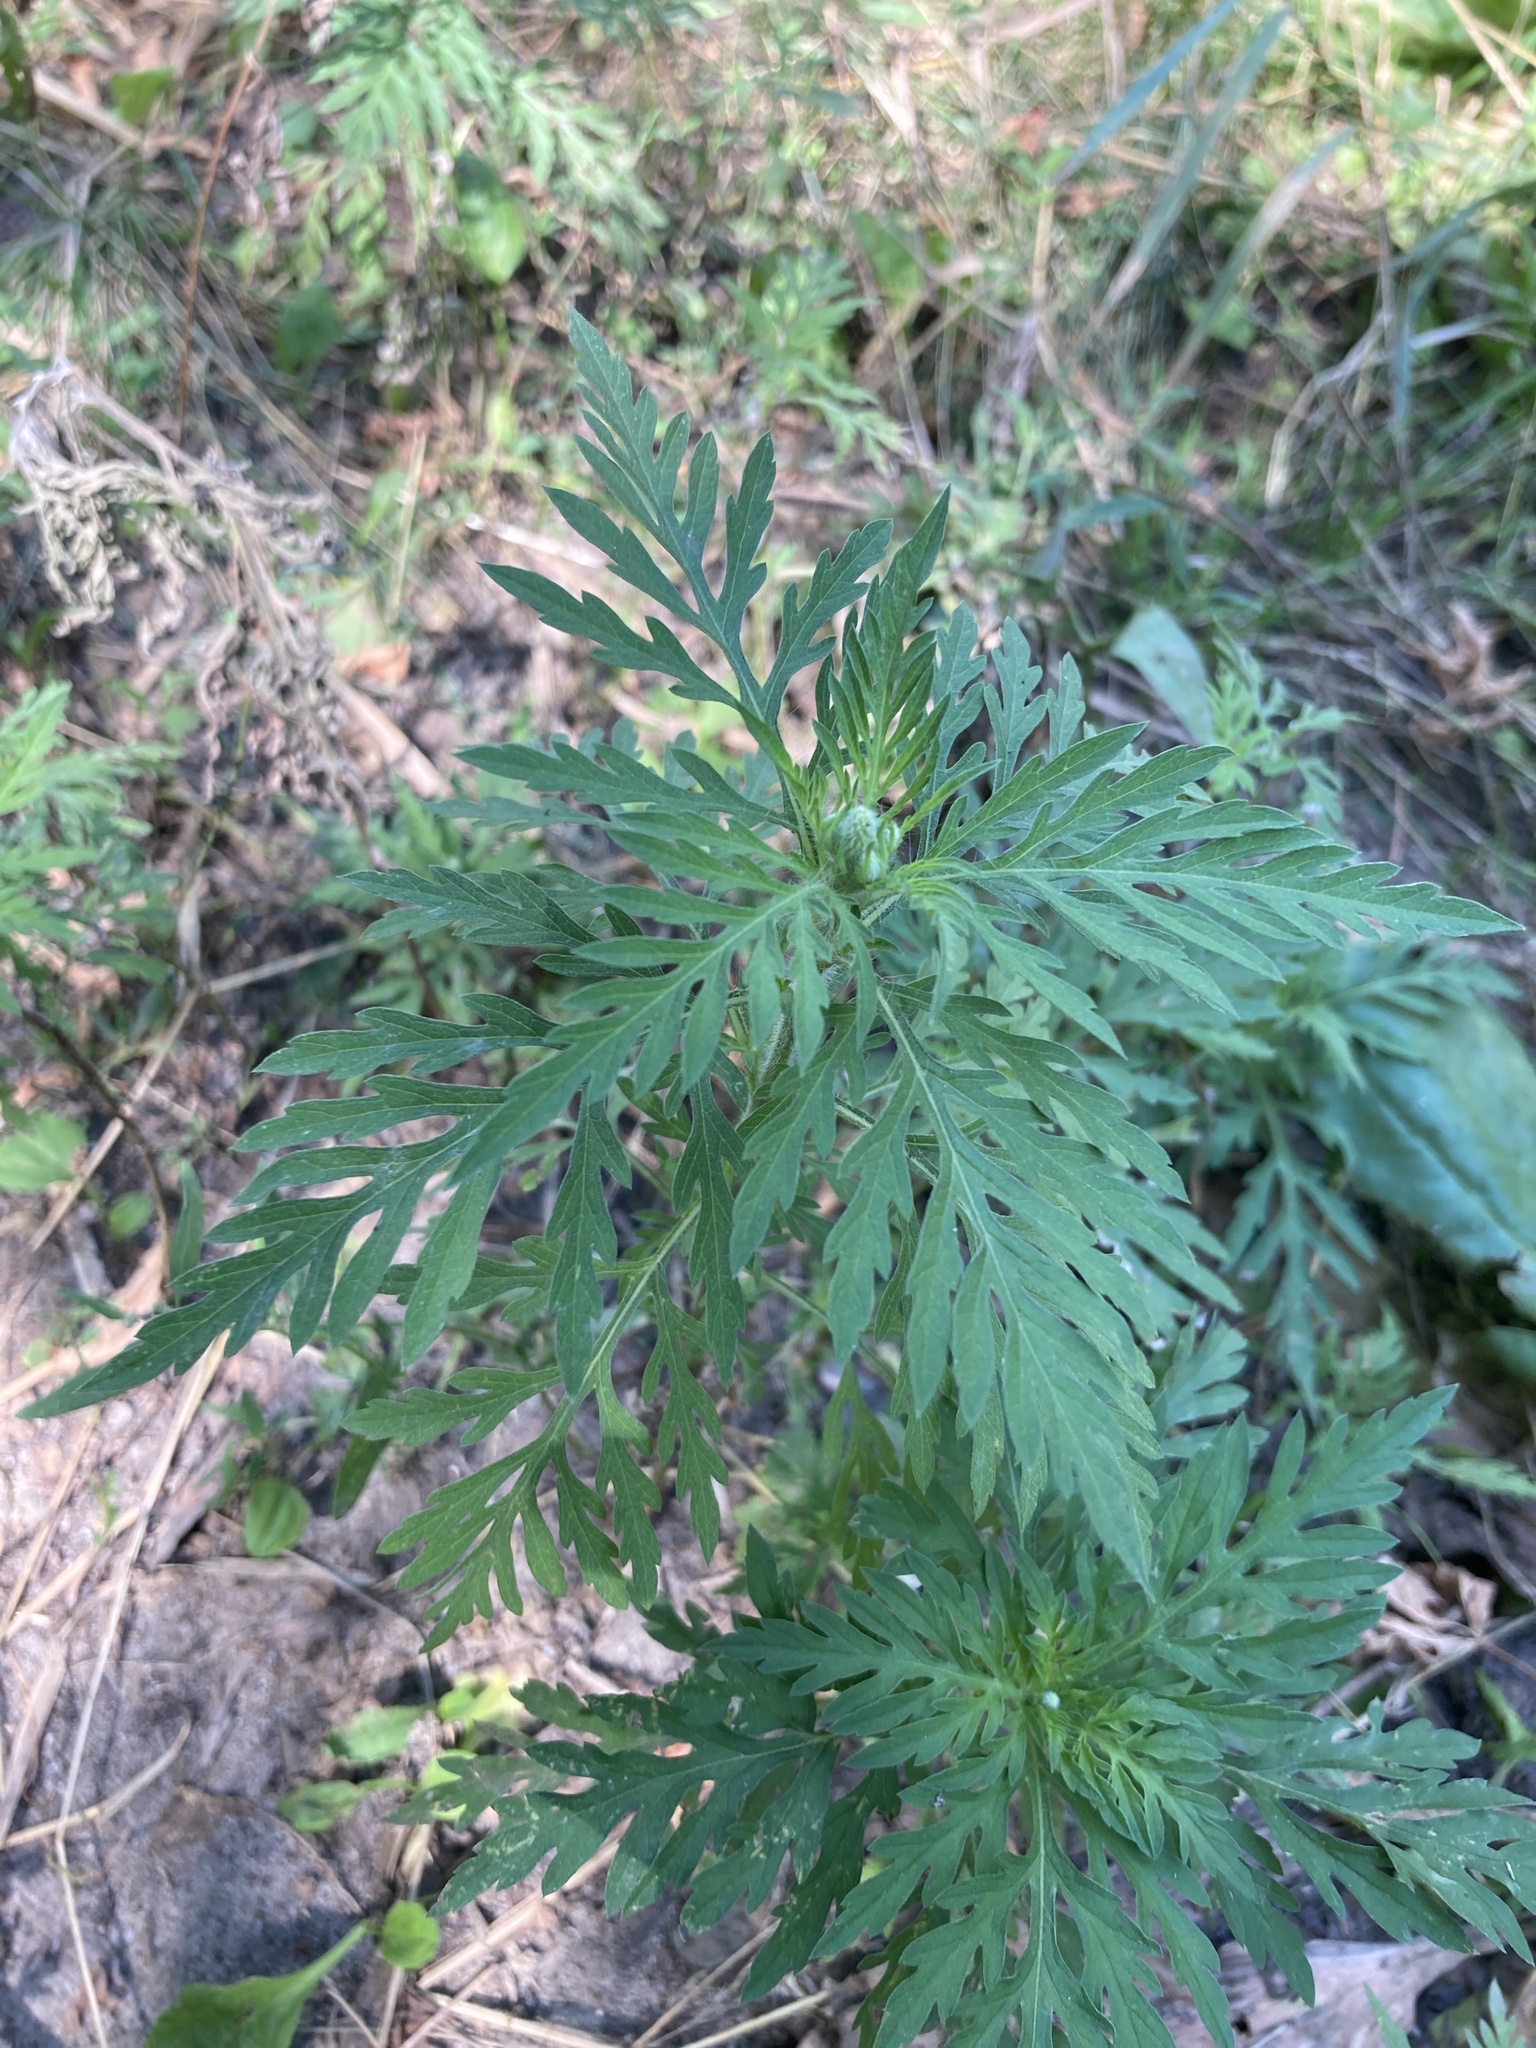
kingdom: Plantae
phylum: Tracheophyta
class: Magnoliopsida
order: Asterales
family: Asteraceae
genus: Ambrosia
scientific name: Ambrosia artemisiifolia
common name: Annual ragweed
